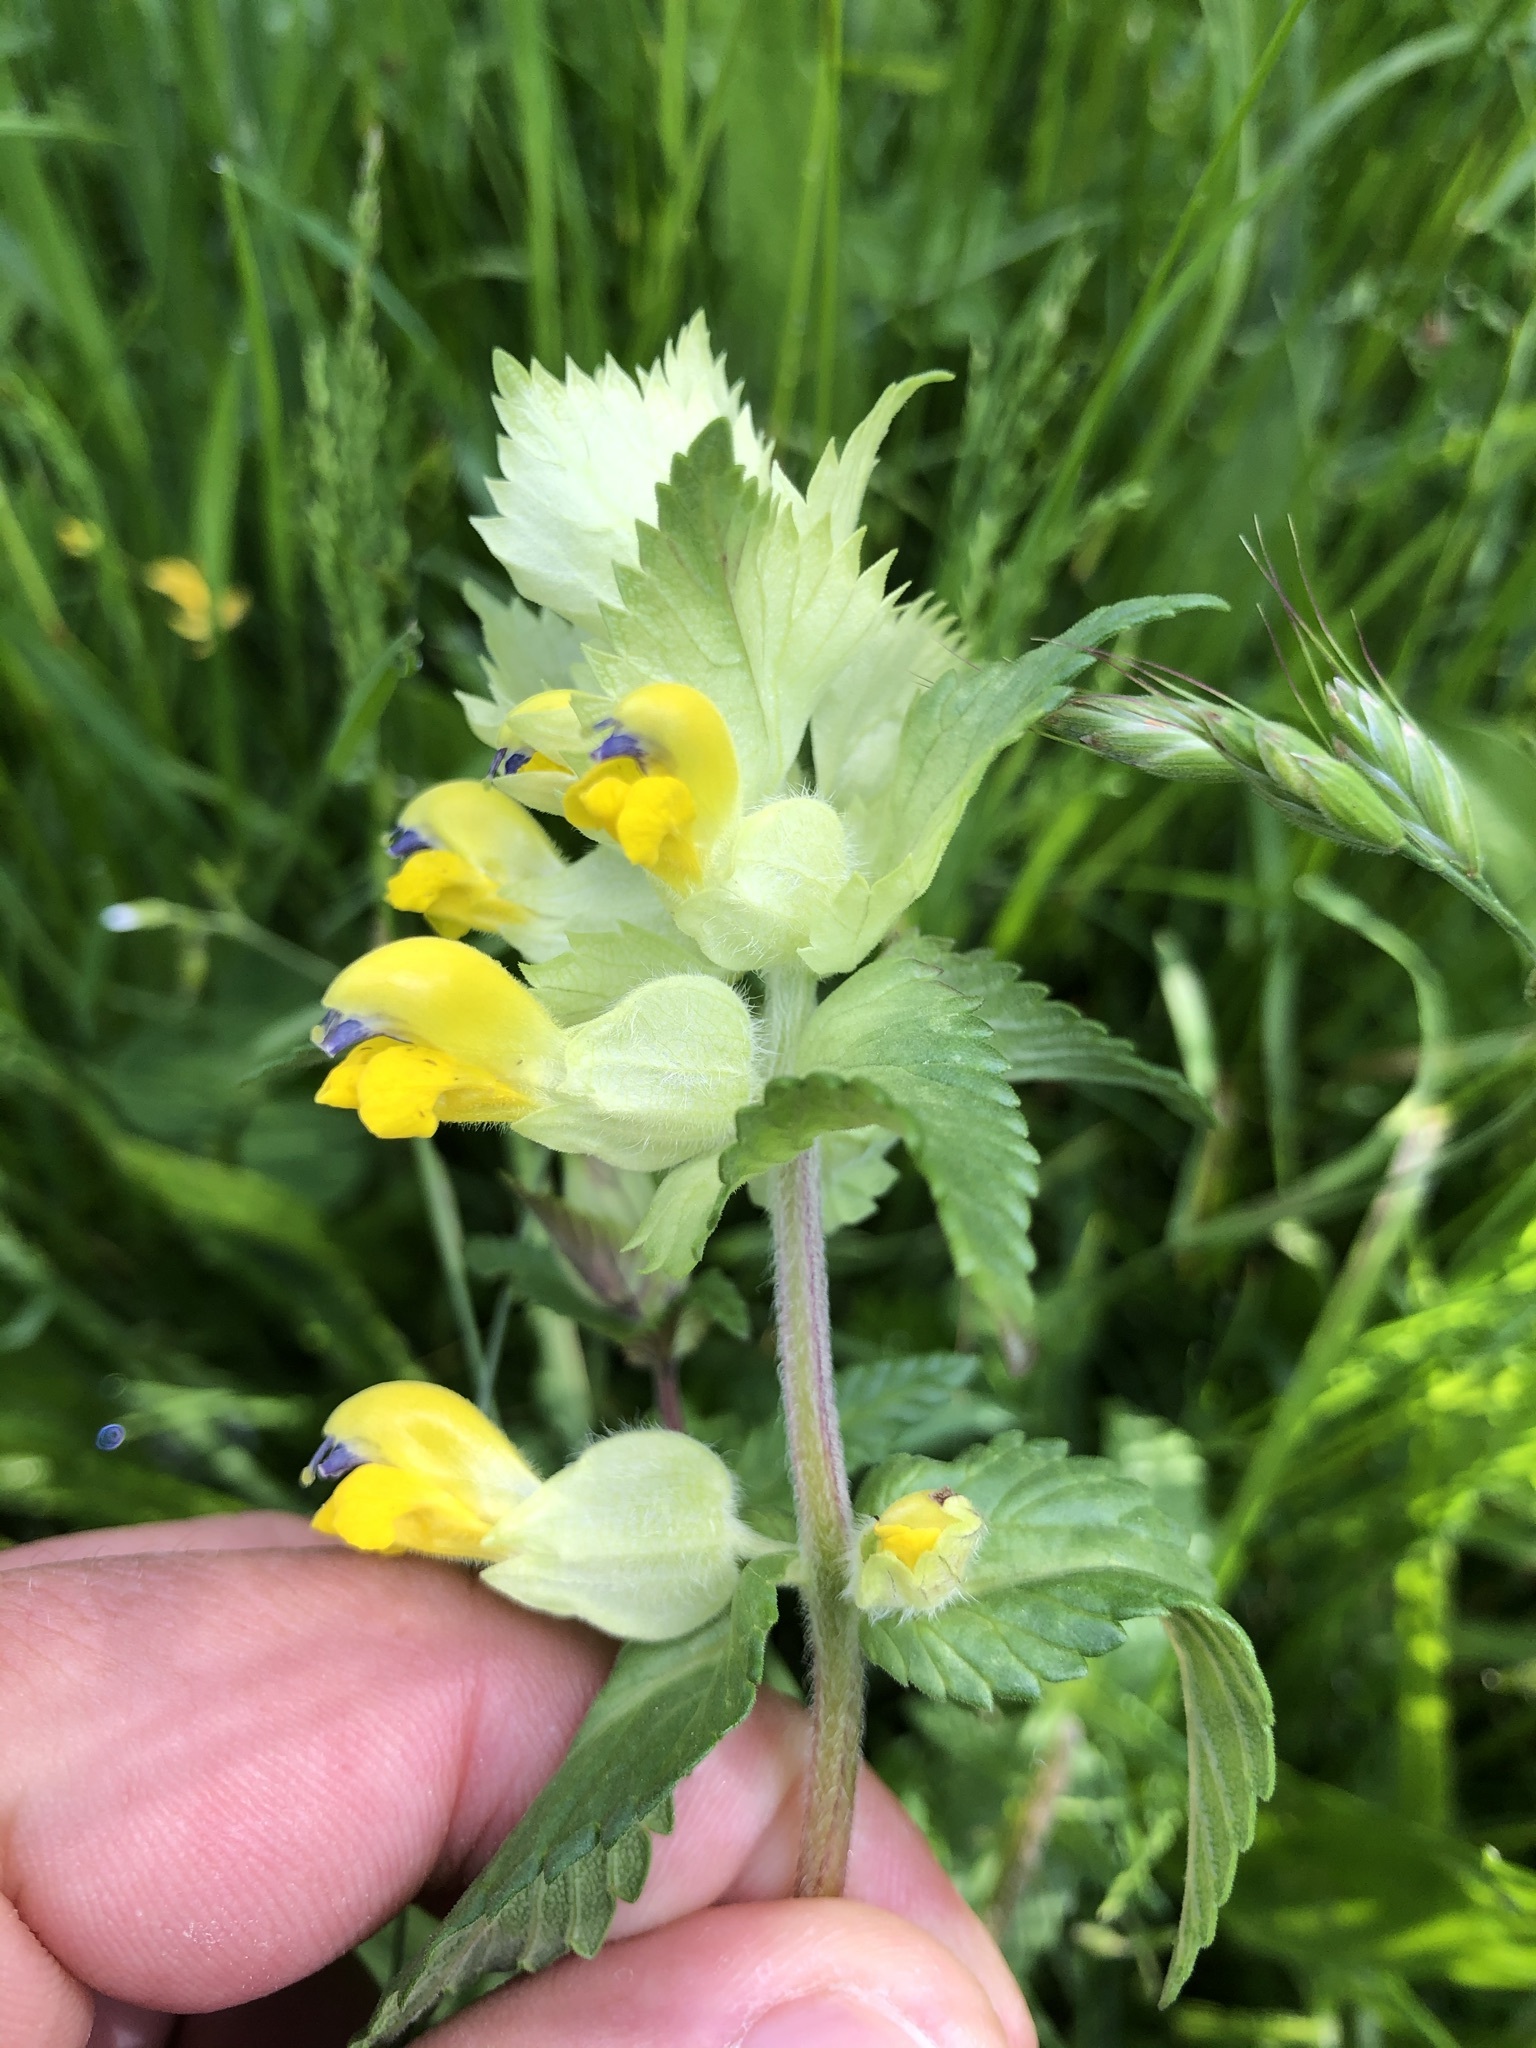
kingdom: Plantae
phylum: Tracheophyta
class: Magnoliopsida
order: Lamiales
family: Orobanchaceae
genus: Rhinanthus
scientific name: Rhinanthus alectorolophus
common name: Greater yellow-rattle
